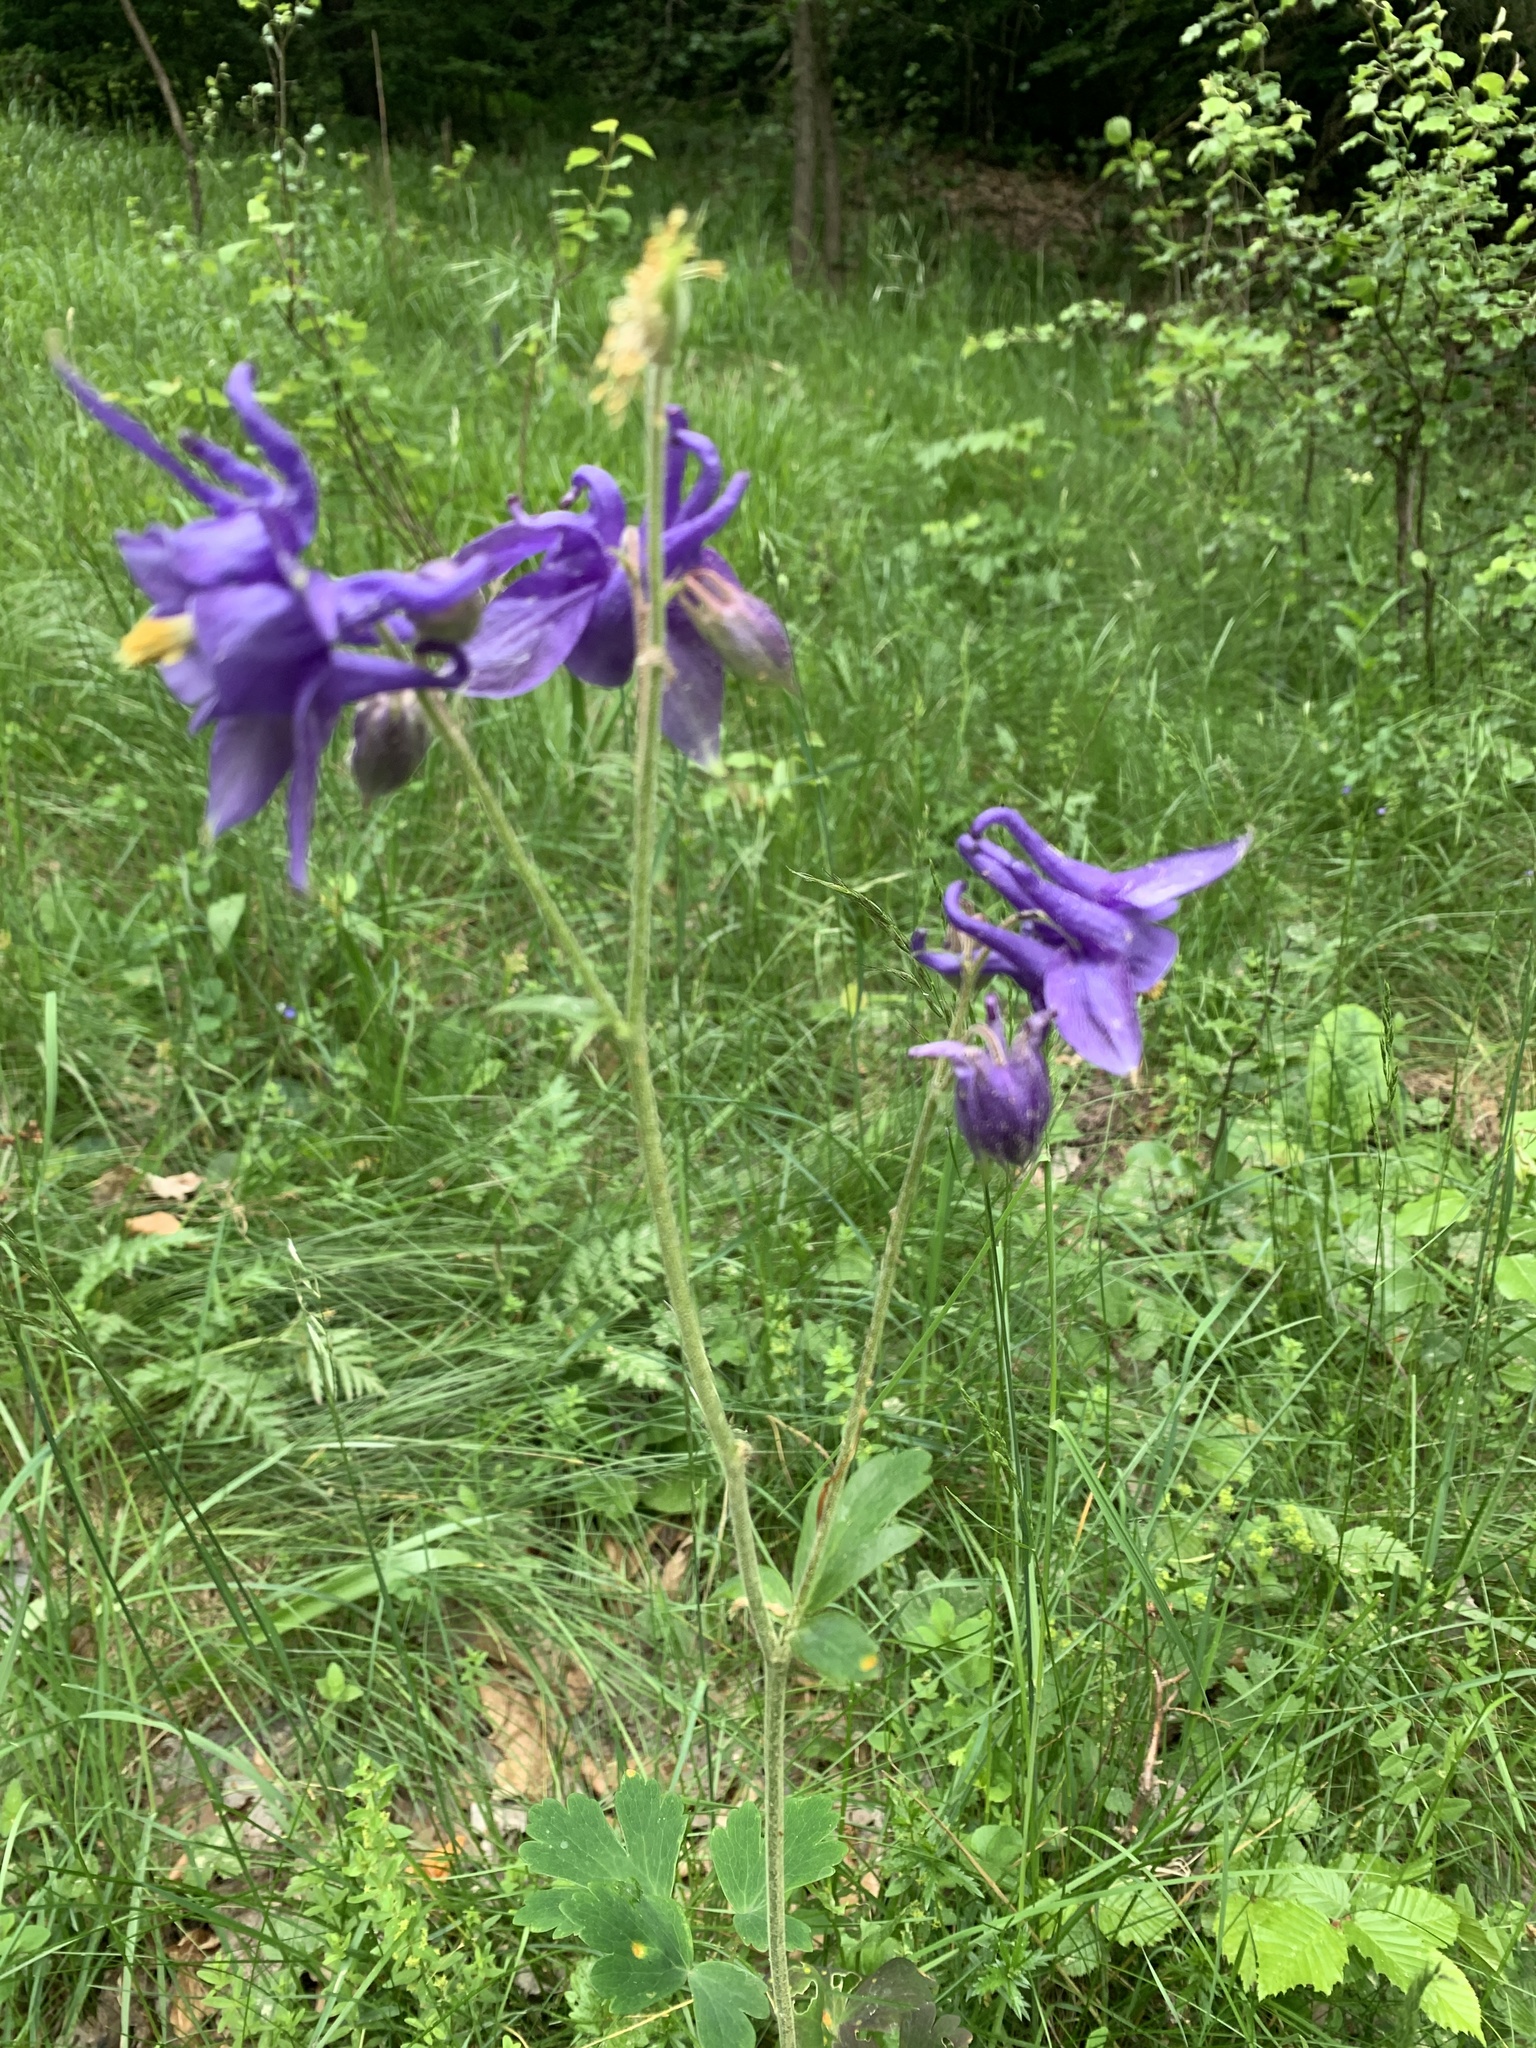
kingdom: Plantae
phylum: Tracheophyta
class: Magnoliopsida
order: Ranunculales
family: Ranunculaceae
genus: Aquilegia
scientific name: Aquilegia vulgaris
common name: Columbine
